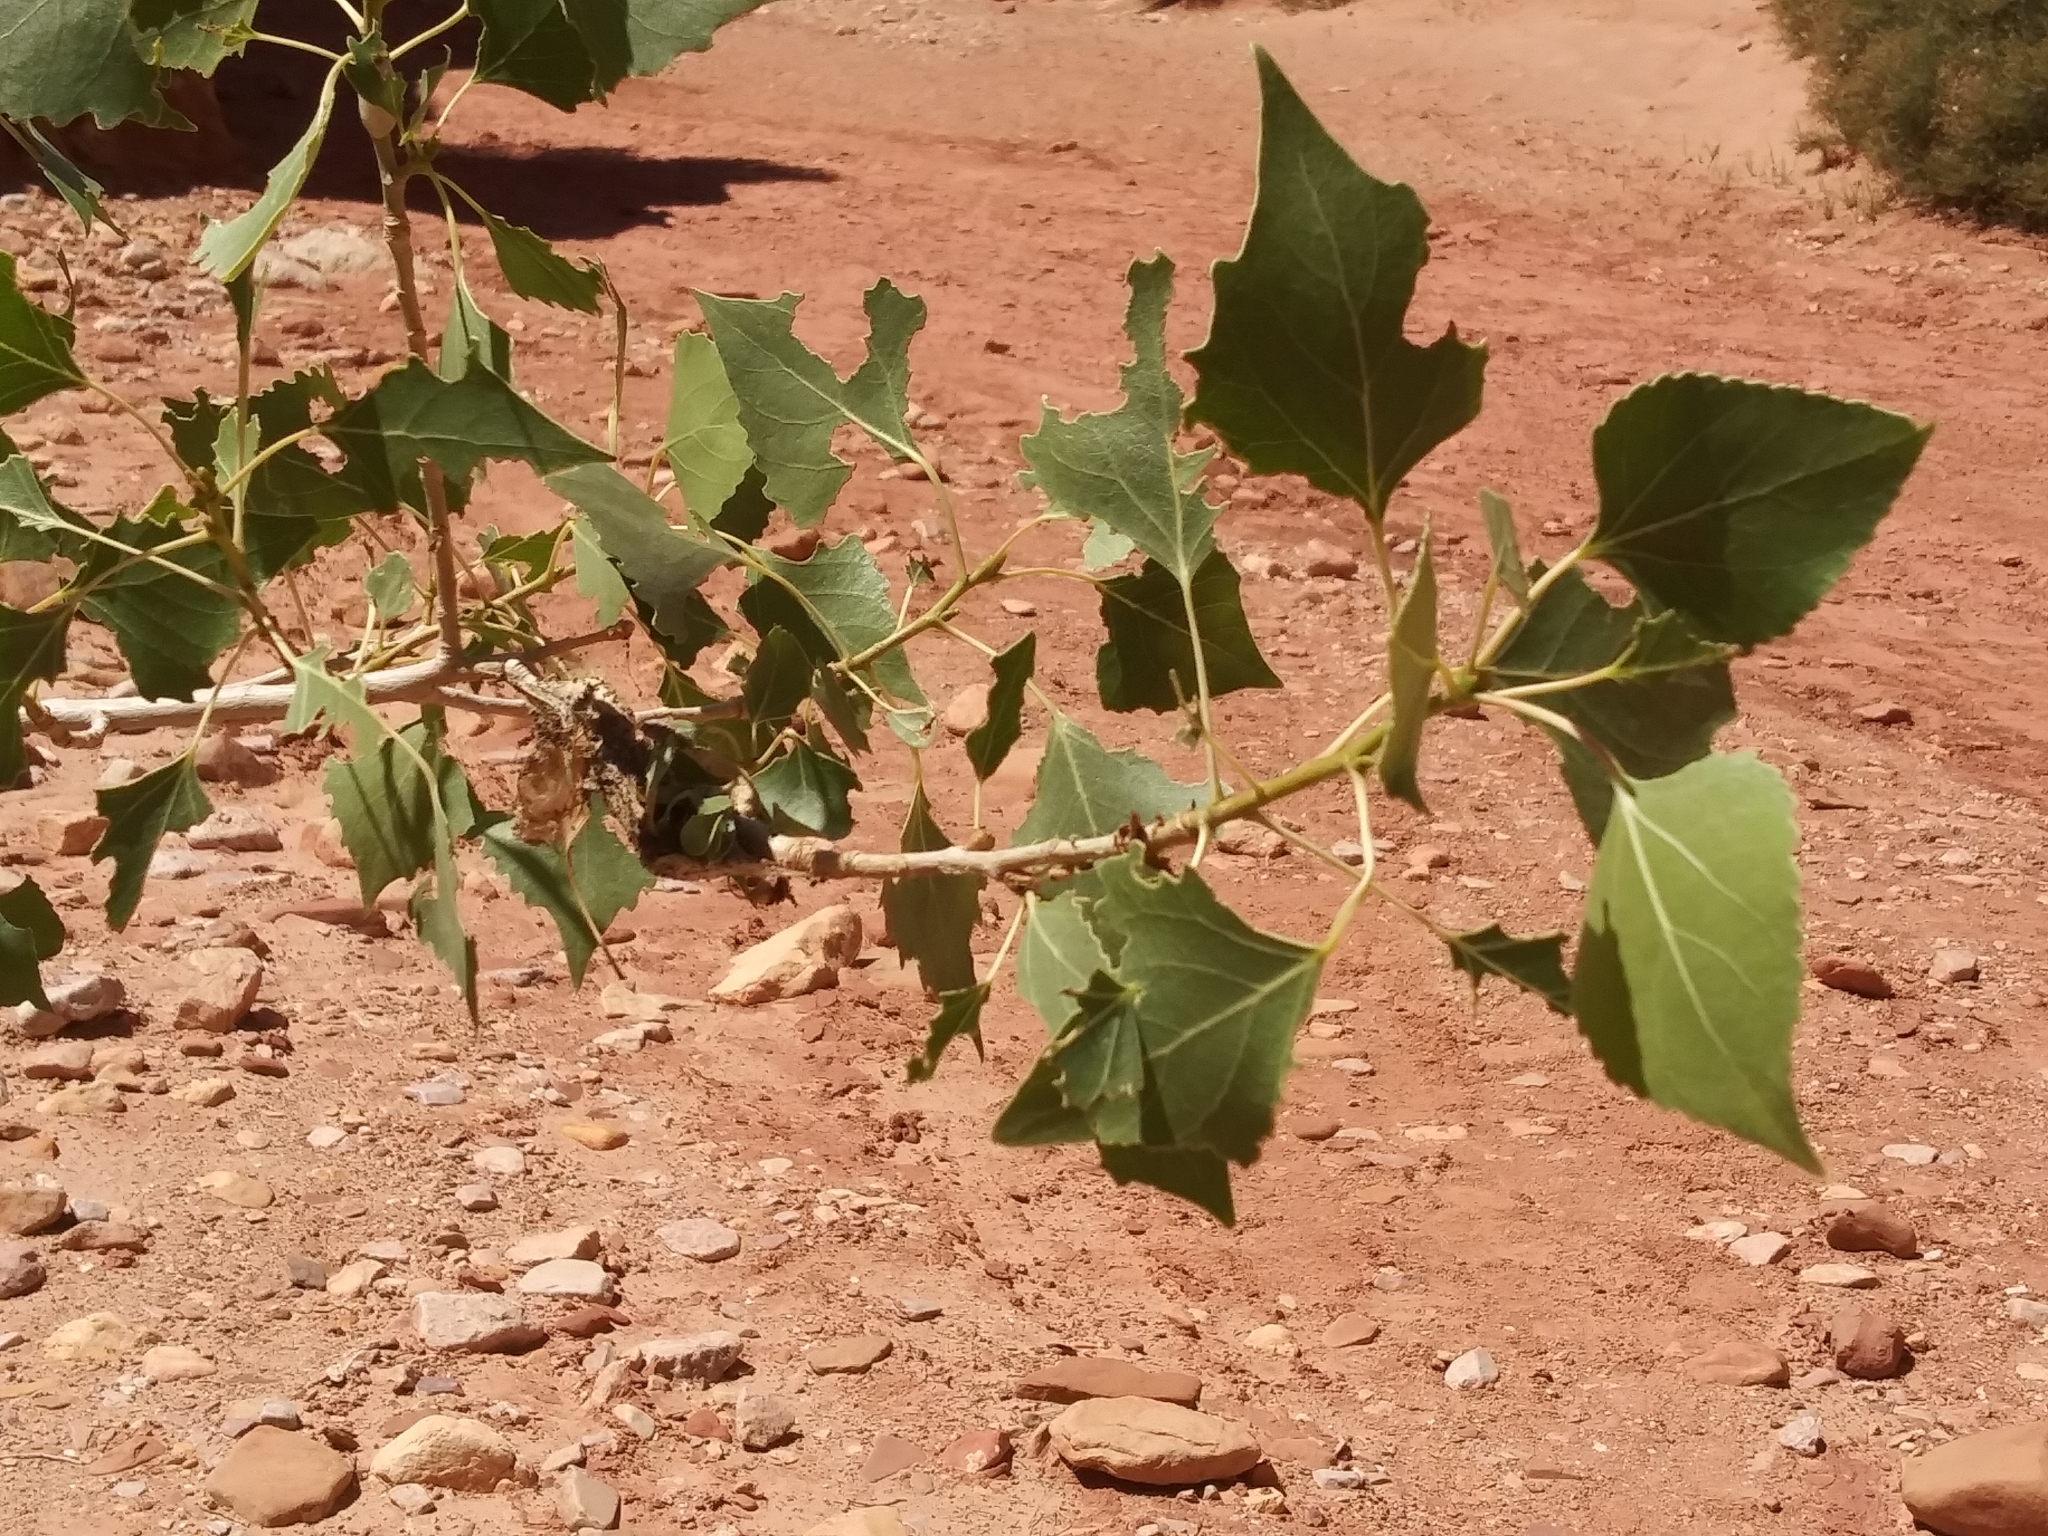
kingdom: Plantae
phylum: Tracheophyta
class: Magnoliopsida
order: Malpighiales
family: Salicaceae
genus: Populus
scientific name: Populus fremontii
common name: Fremont's cottonwood
